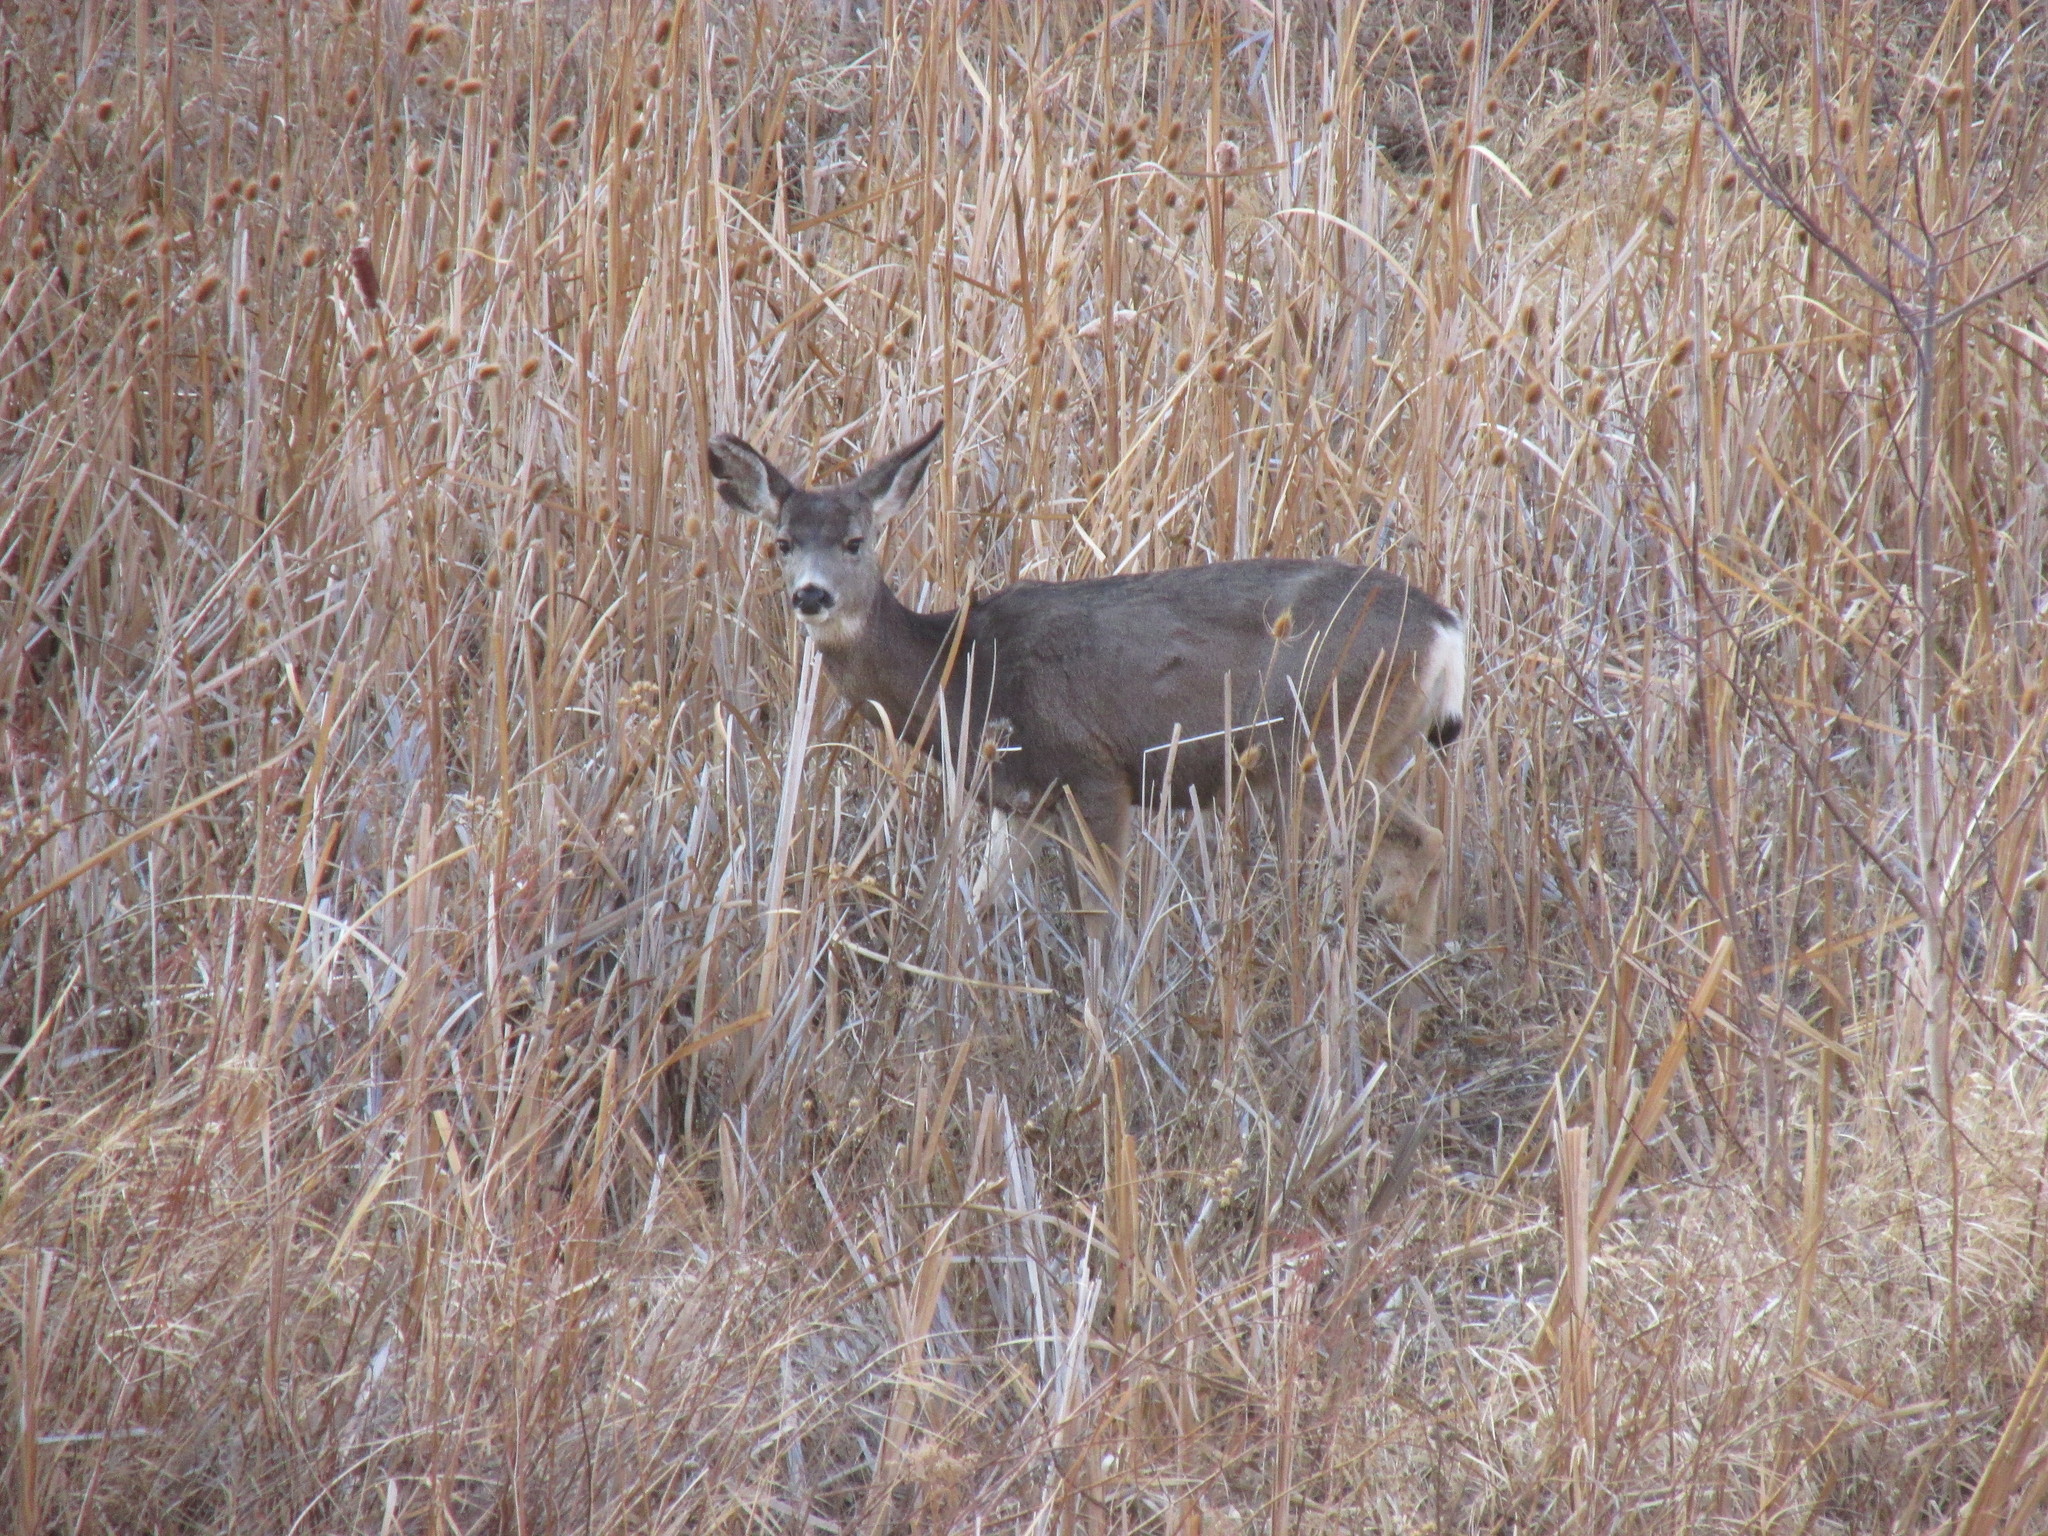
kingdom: Animalia
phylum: Chordata
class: Mammalia
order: Artiodactyla
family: Cervidae
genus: Odocoileus
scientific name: Odocoileus hemionus
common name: Mule deer
